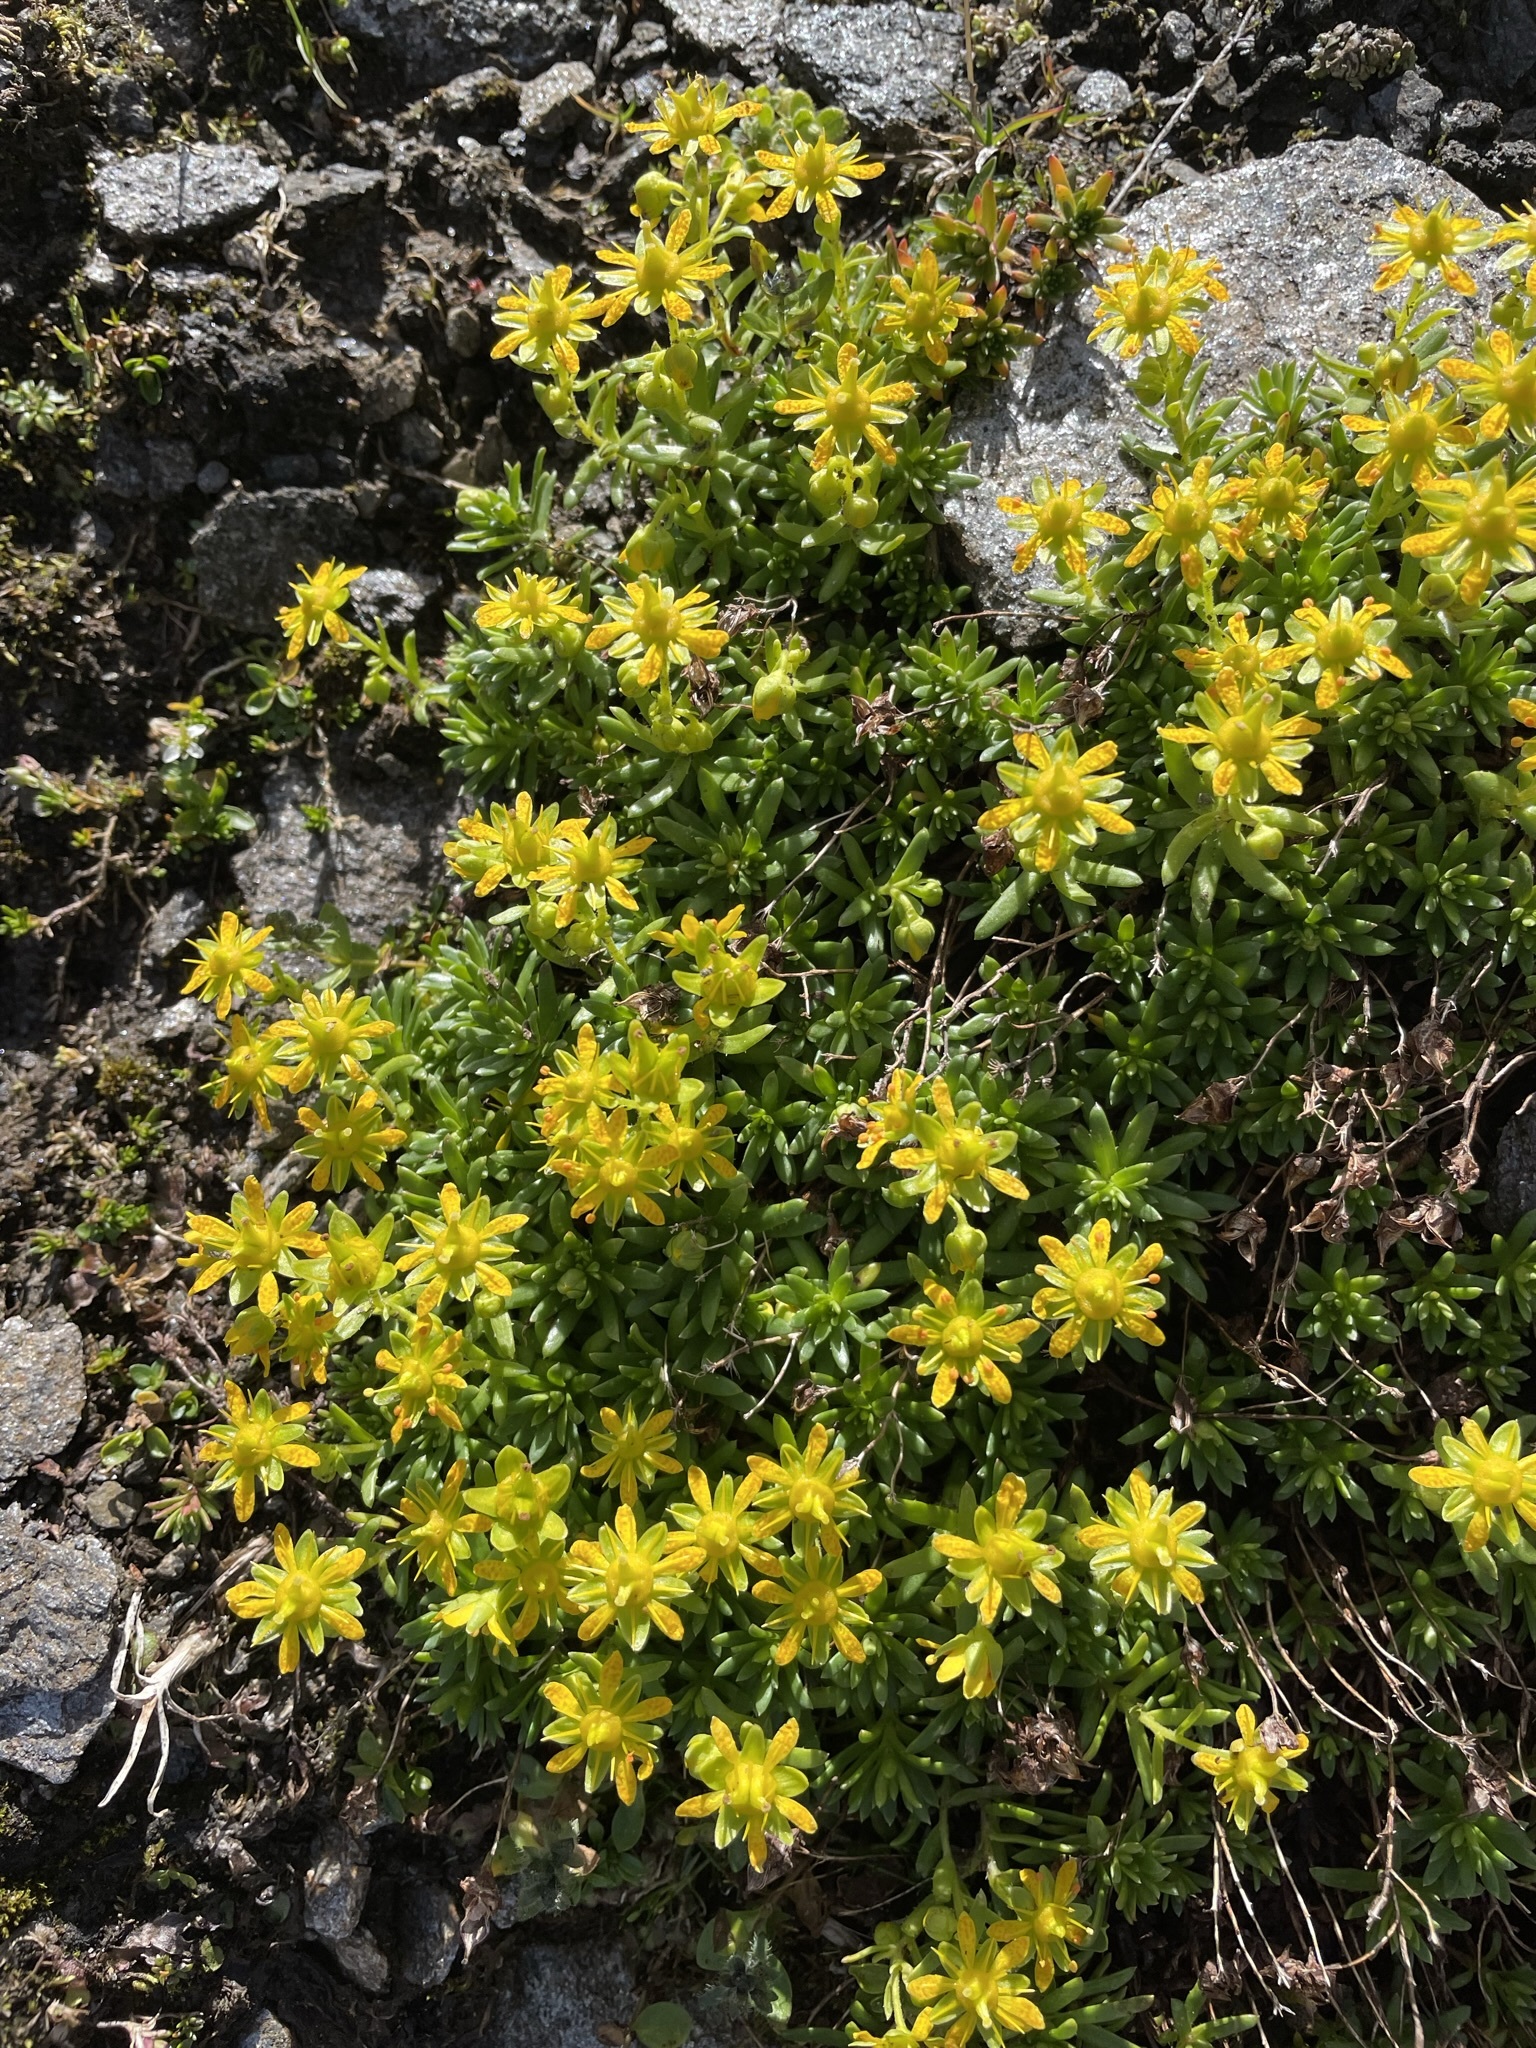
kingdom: Plantae
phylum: Tracheophyta
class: Magnoliopsida
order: Saxifragales
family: Saxifragaceae
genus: Saxifraga
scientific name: Saxifraga aizoides
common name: Yellow mountain saxifrage
